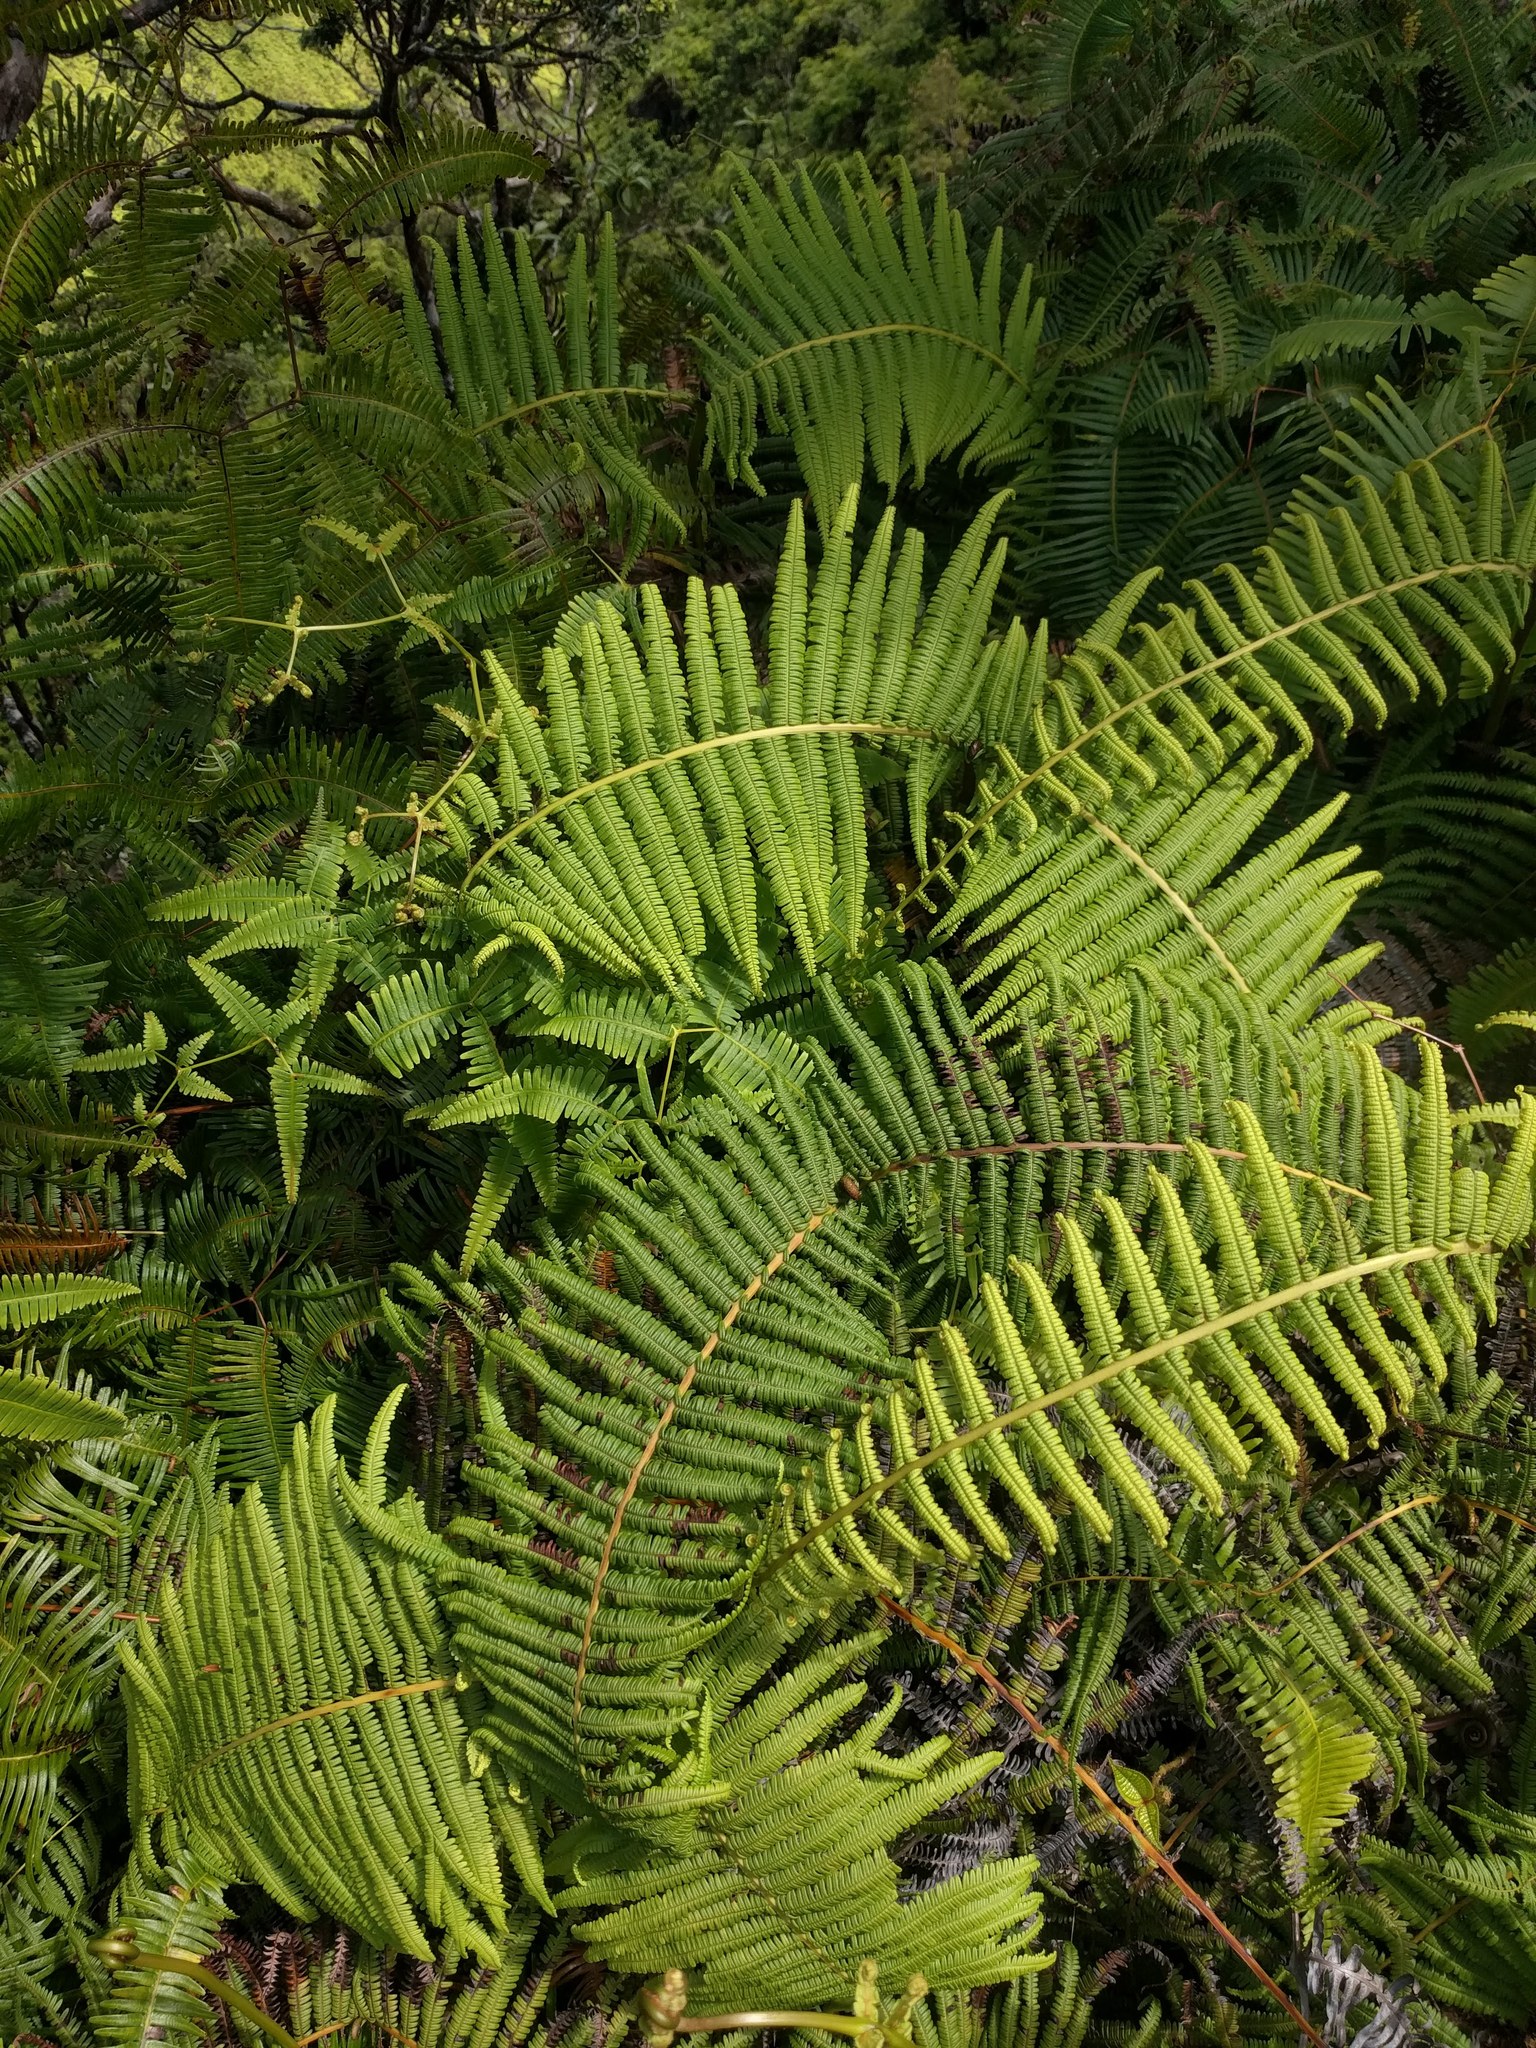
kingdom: Plantae
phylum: Tracheophyta
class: Polypodiopsida
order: Gleicheniales
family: Gleicheniaceae
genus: Diplopterygium
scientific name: Diplopterygium pinnatum
